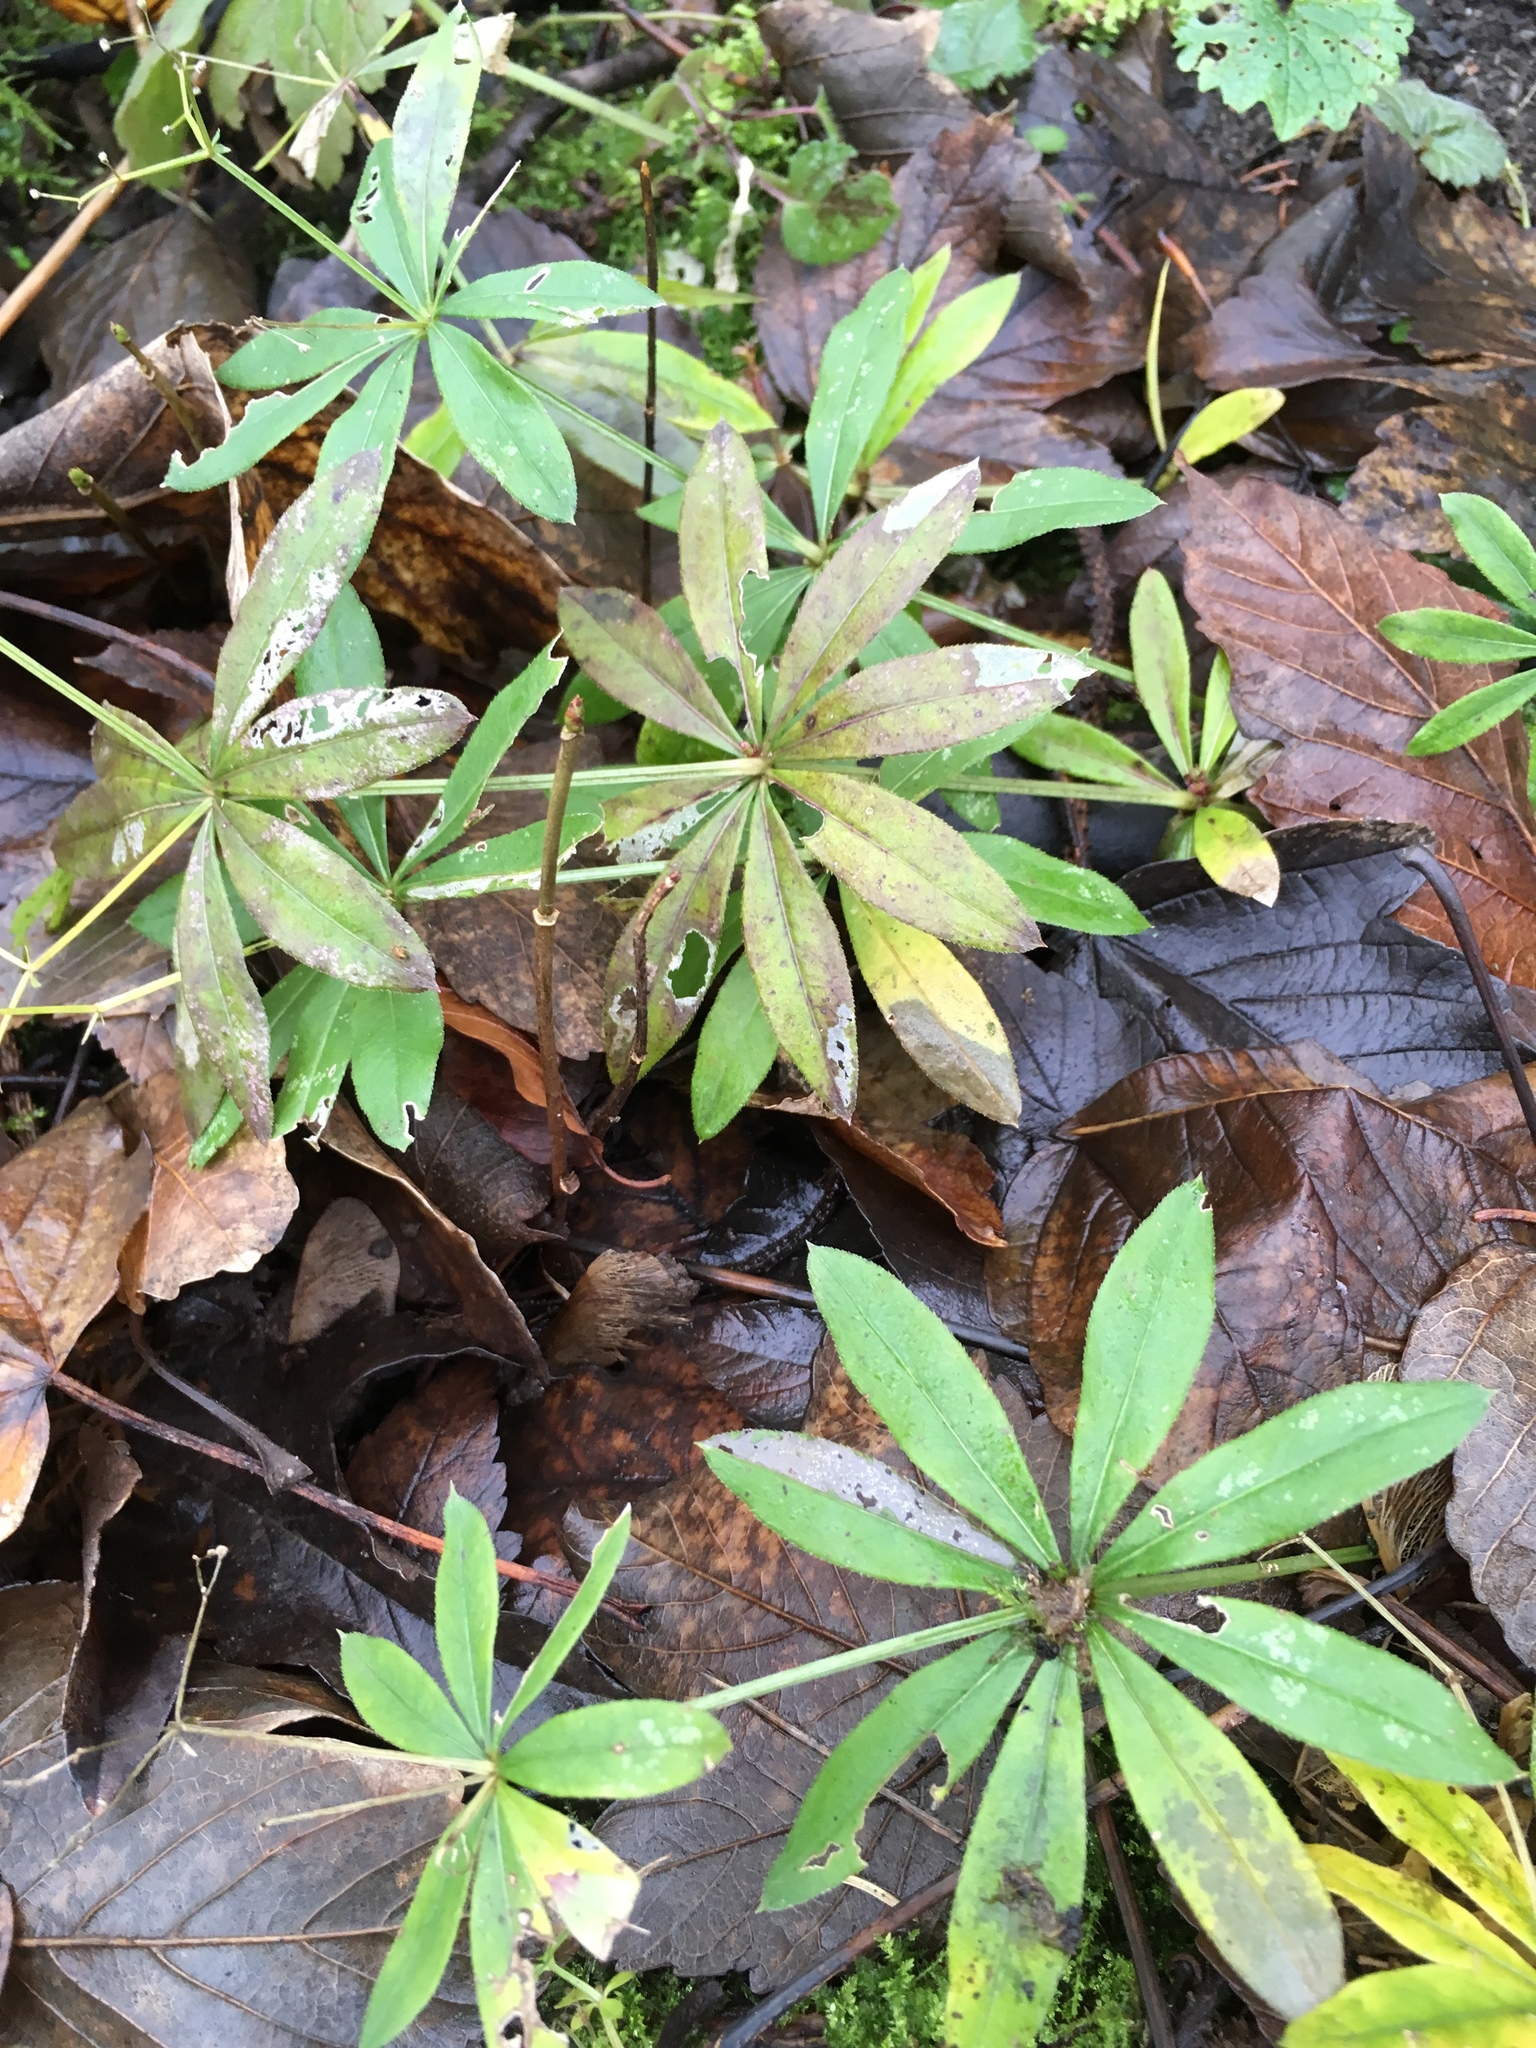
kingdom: Plantae
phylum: Tracheophyta
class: Magnoliopsida
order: Gentianales
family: Rubiaceae
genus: Galium
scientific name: Galium odoratum
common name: Sweet woodruff
